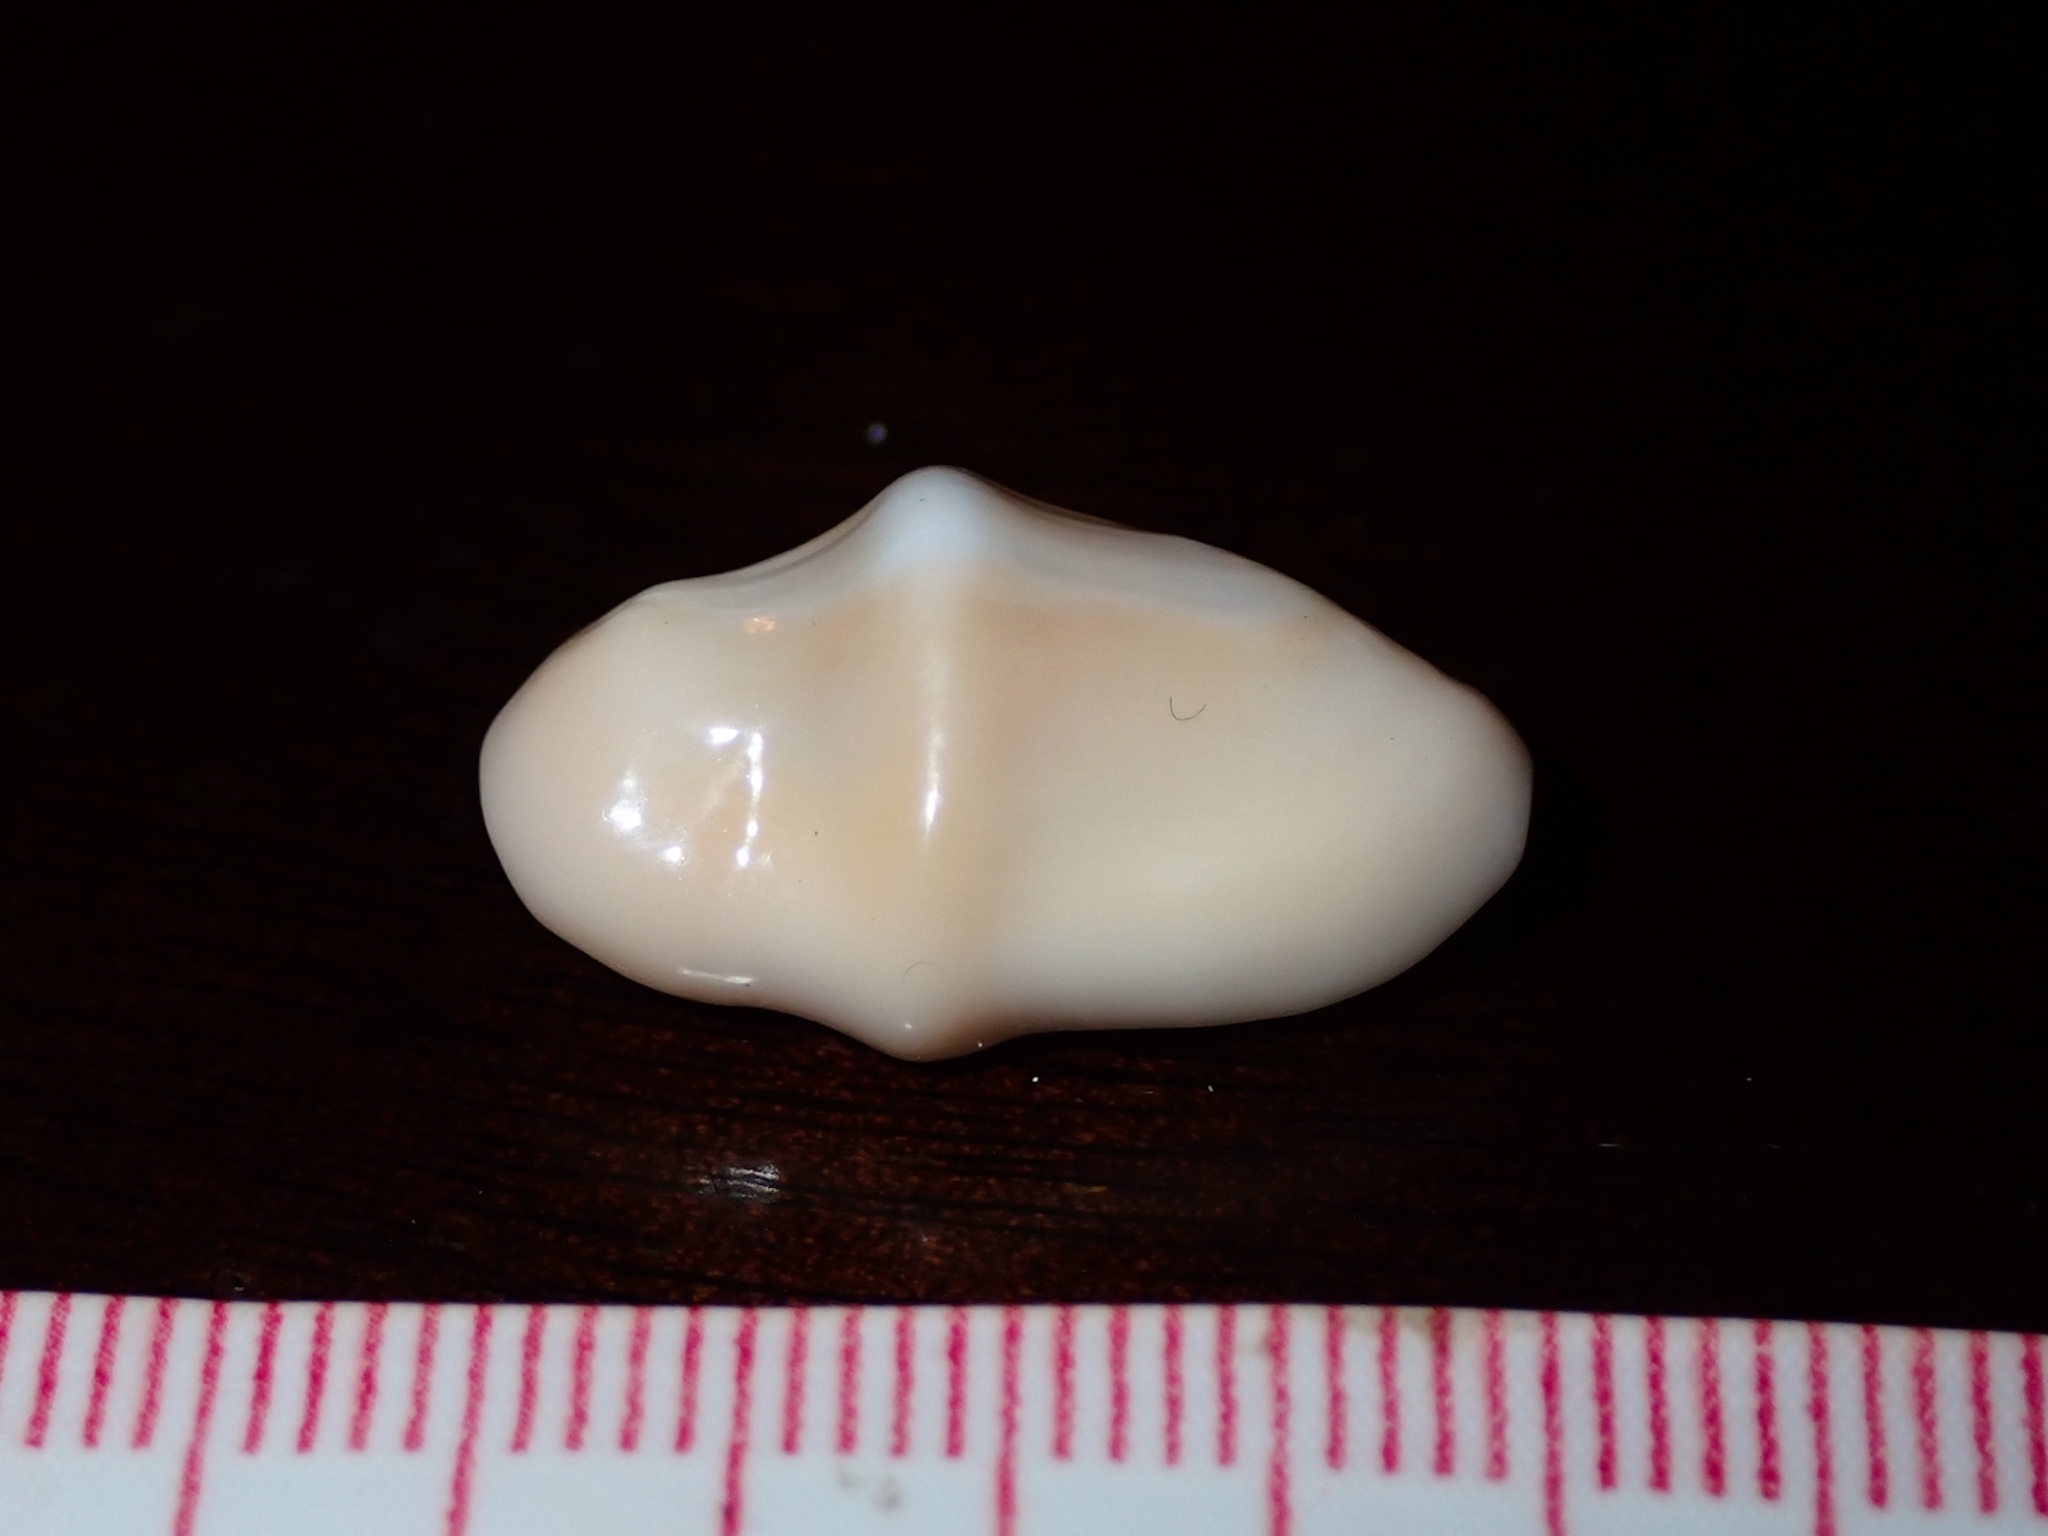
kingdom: Animalia
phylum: Mollusca
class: Gastropoda
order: Littorinimorpha
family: Ovulidae
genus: Cyphoma
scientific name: Cyphoma gibbosum
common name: Flamingo tongue
